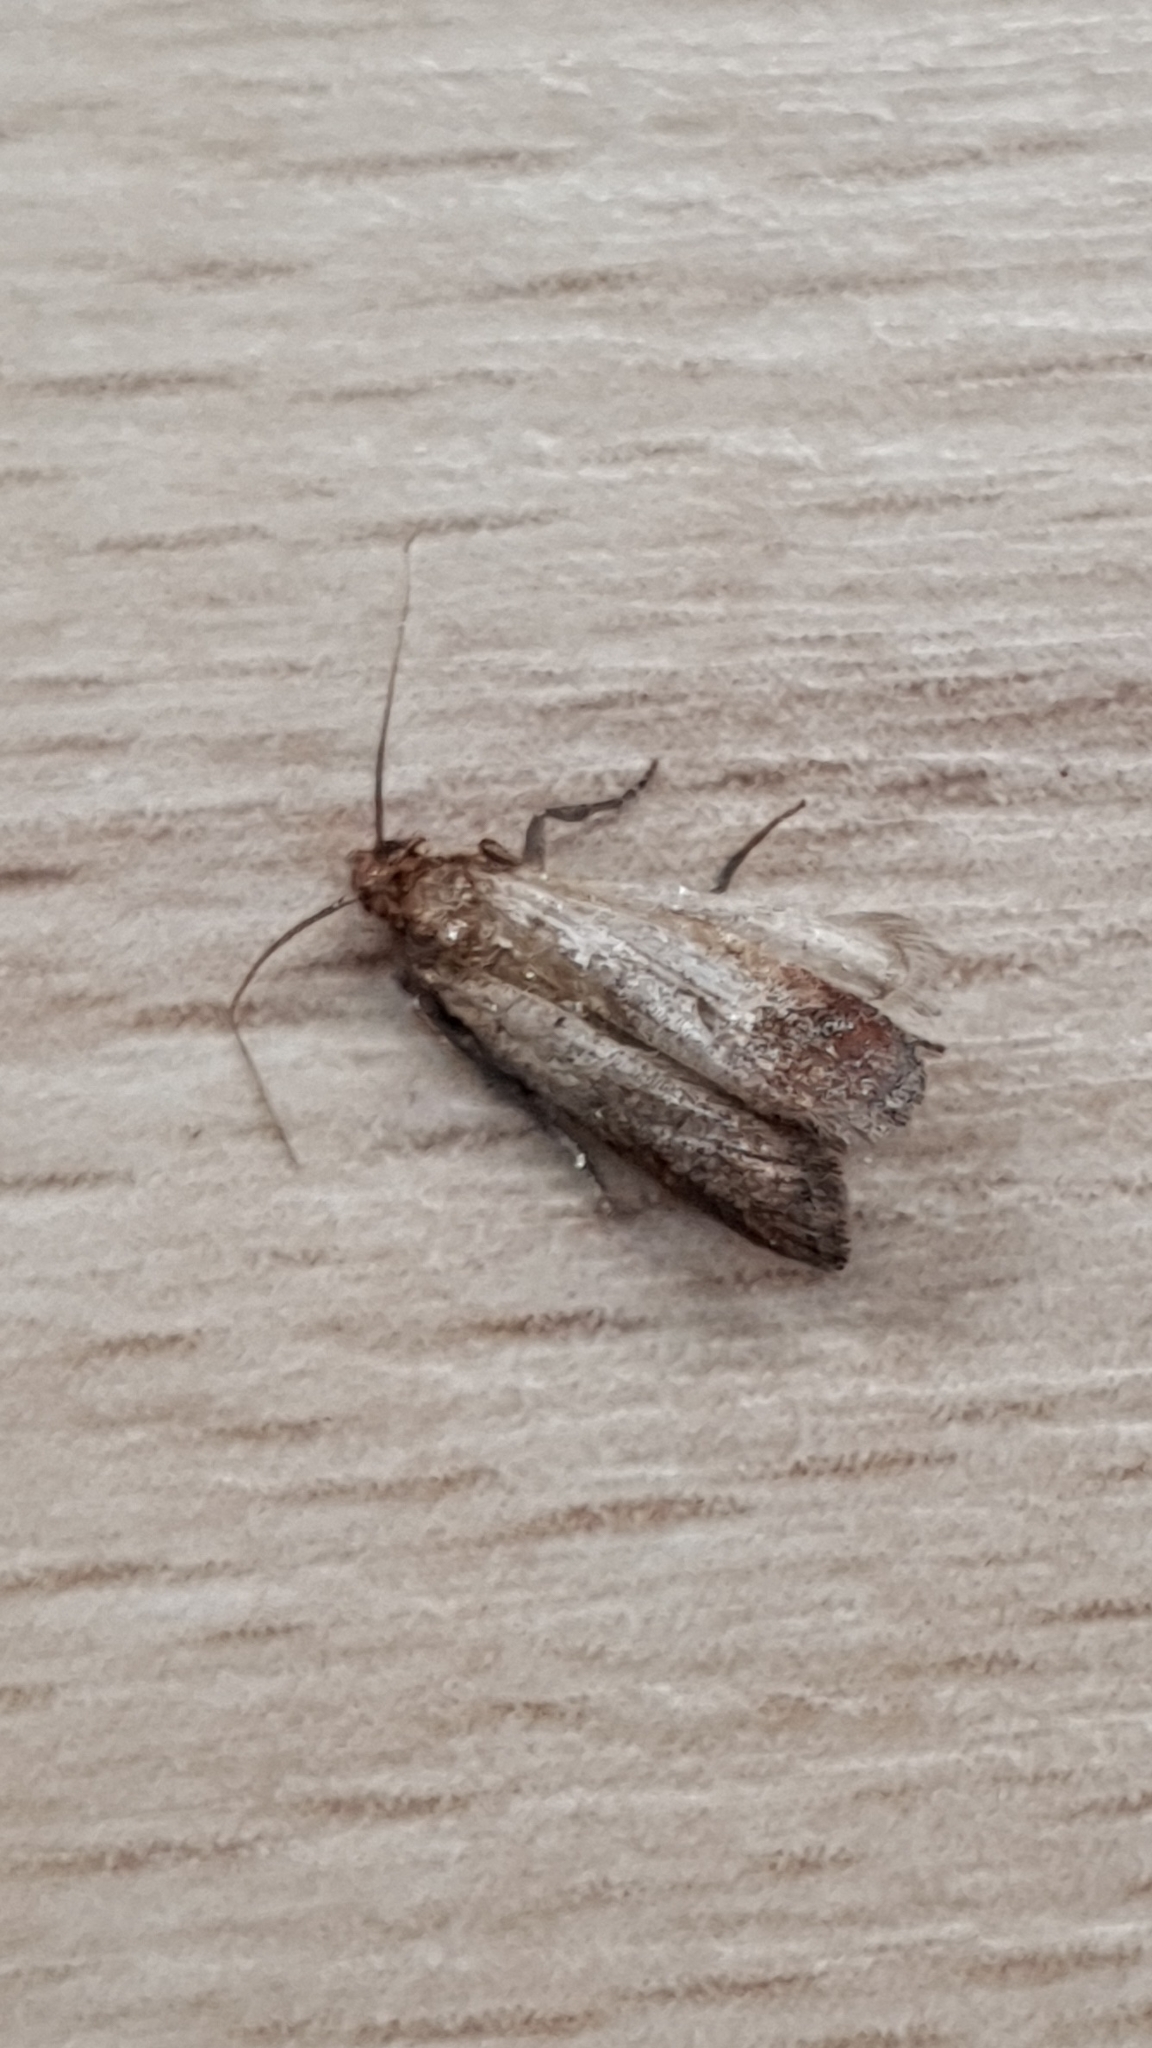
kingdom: Animalia
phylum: Arthropoda
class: Insecta
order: Lepidoptera
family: Pyralidae
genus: Plodia
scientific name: Plodia interpunctella
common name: Indian meal moth
